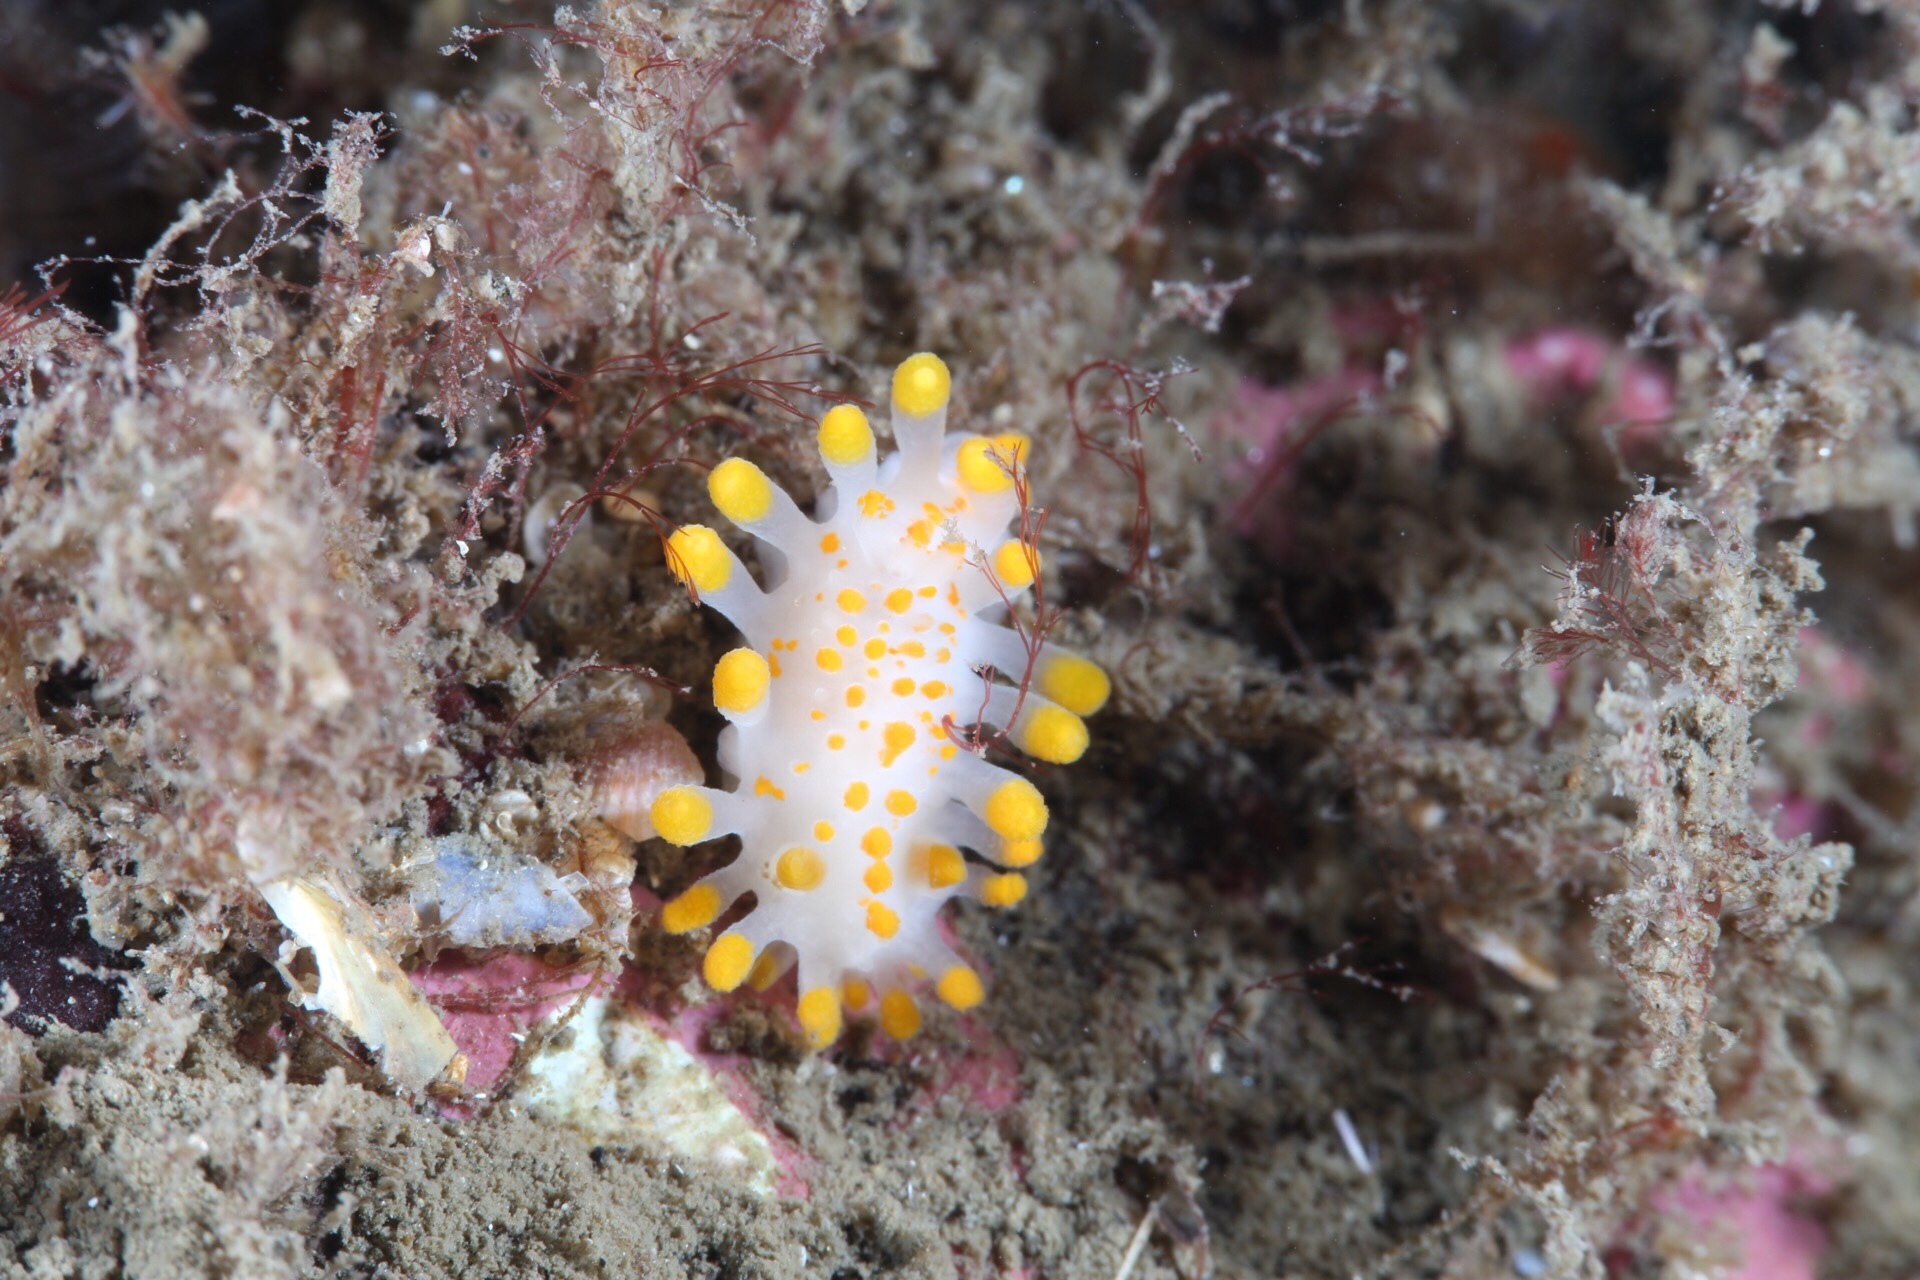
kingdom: Animalia
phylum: Mollusca
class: Gastropoda
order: Nudibranchia
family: Polyceridae
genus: Limacia
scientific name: Limacia clavigera
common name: Orange-clubbed sea slug
